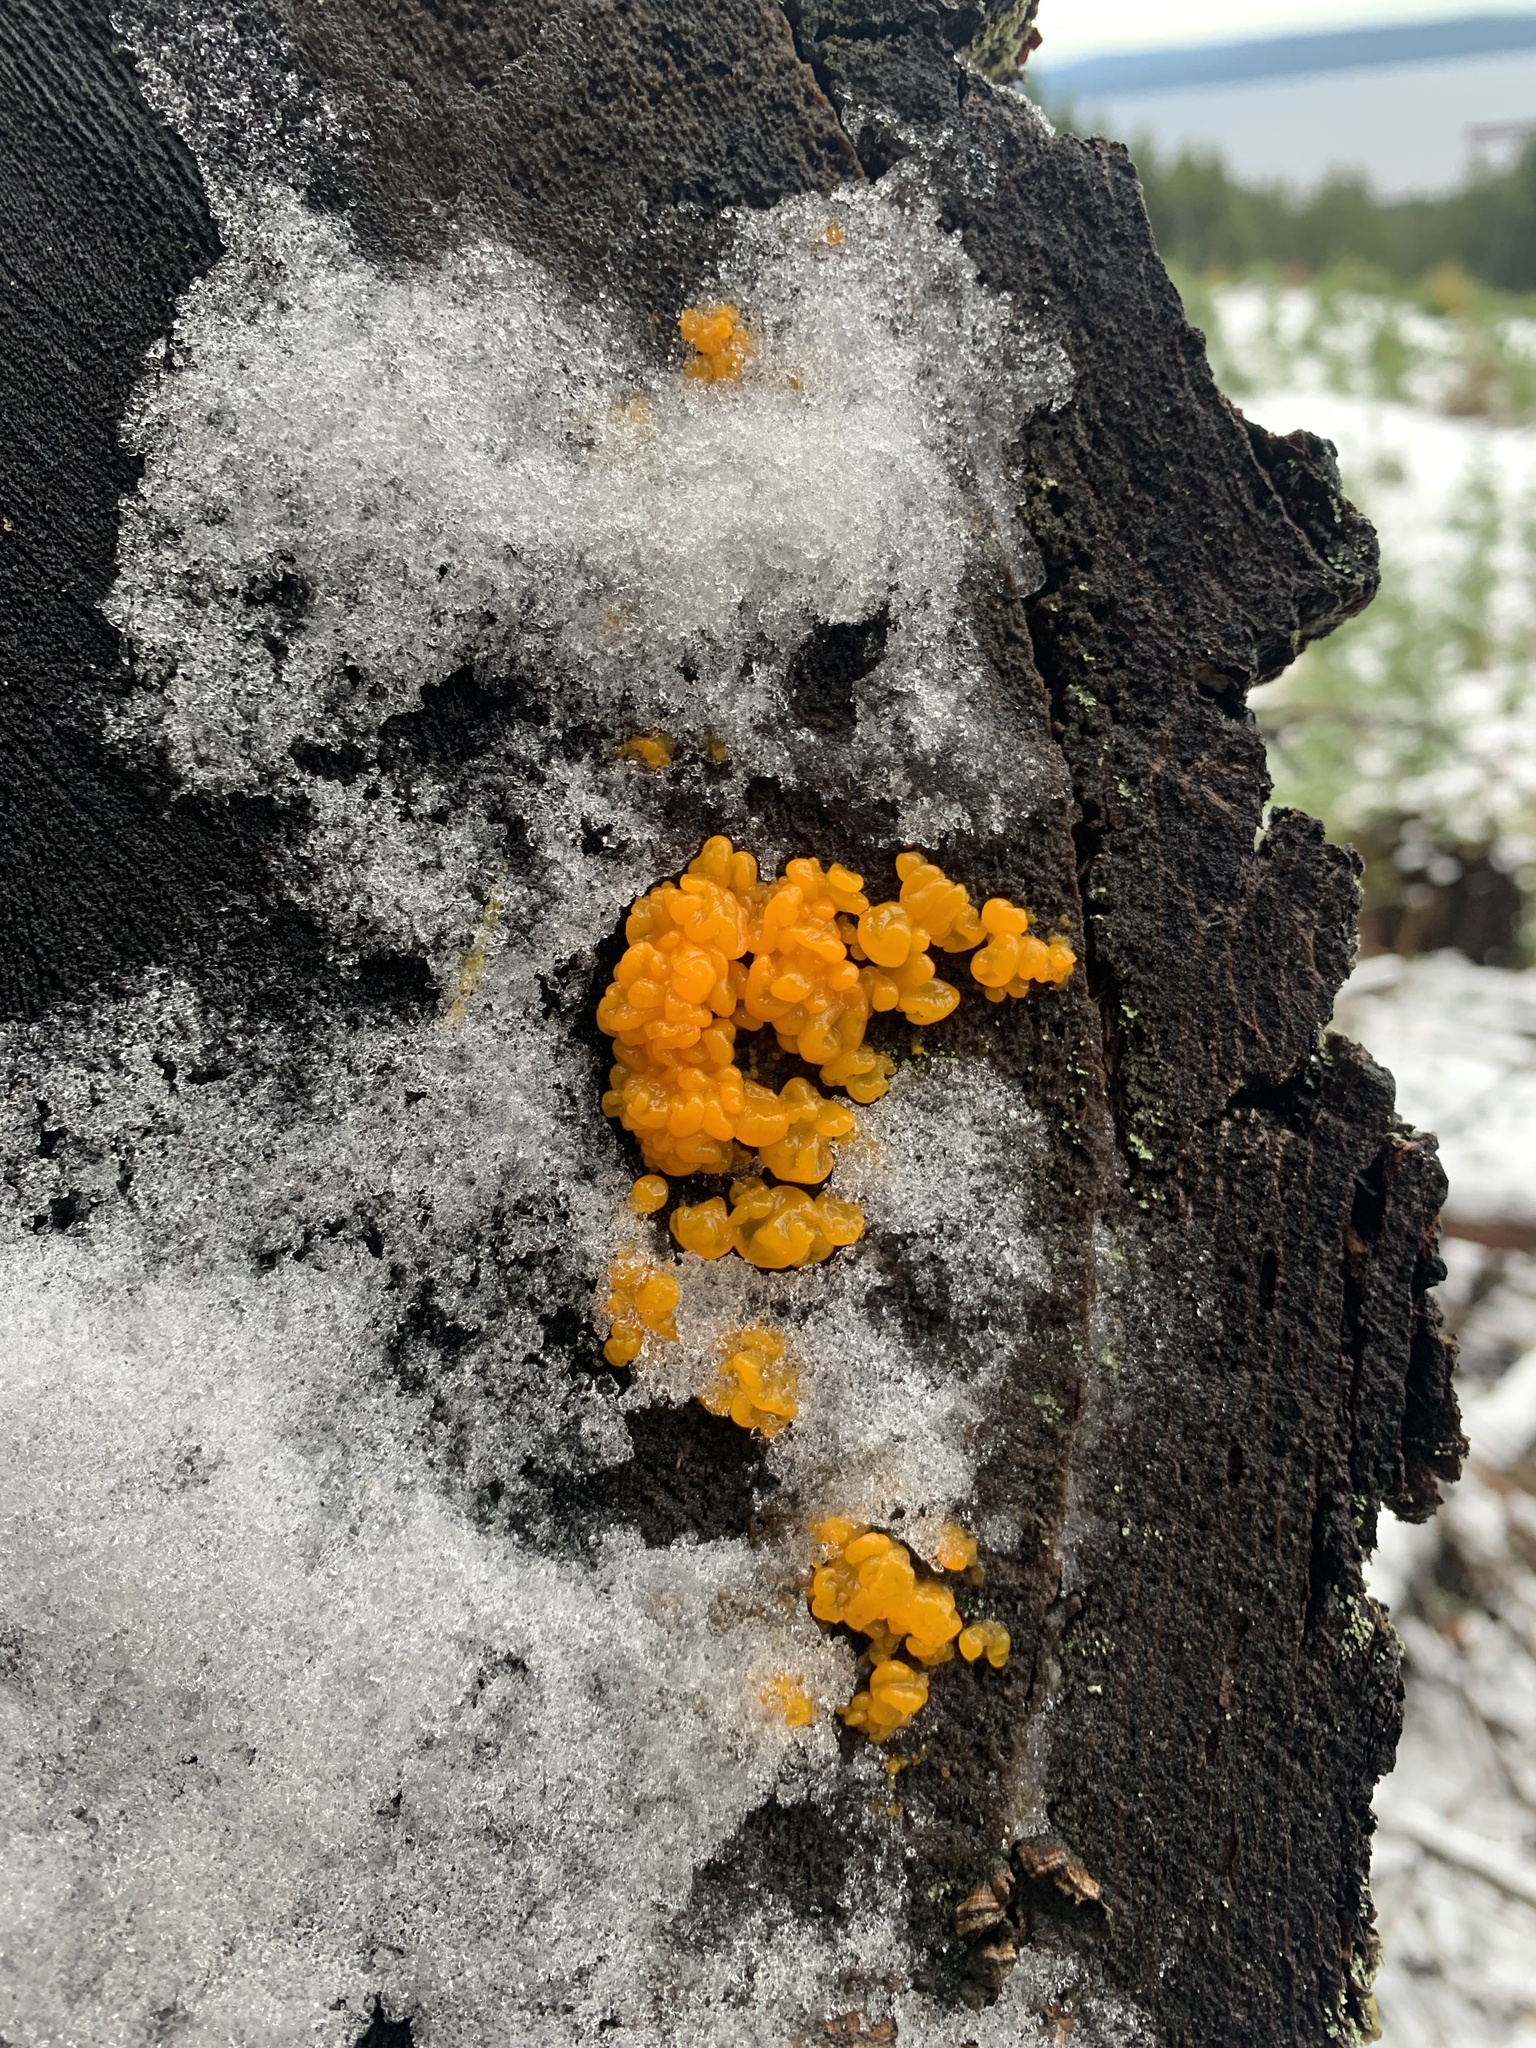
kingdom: Fungi
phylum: Basidiomycota
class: Dacrymycetes
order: Dacrymycetales
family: Dacrymycetaceae
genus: Dacrymyces
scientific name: Dacrymyces chrysospermus
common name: Orange jelly spot
